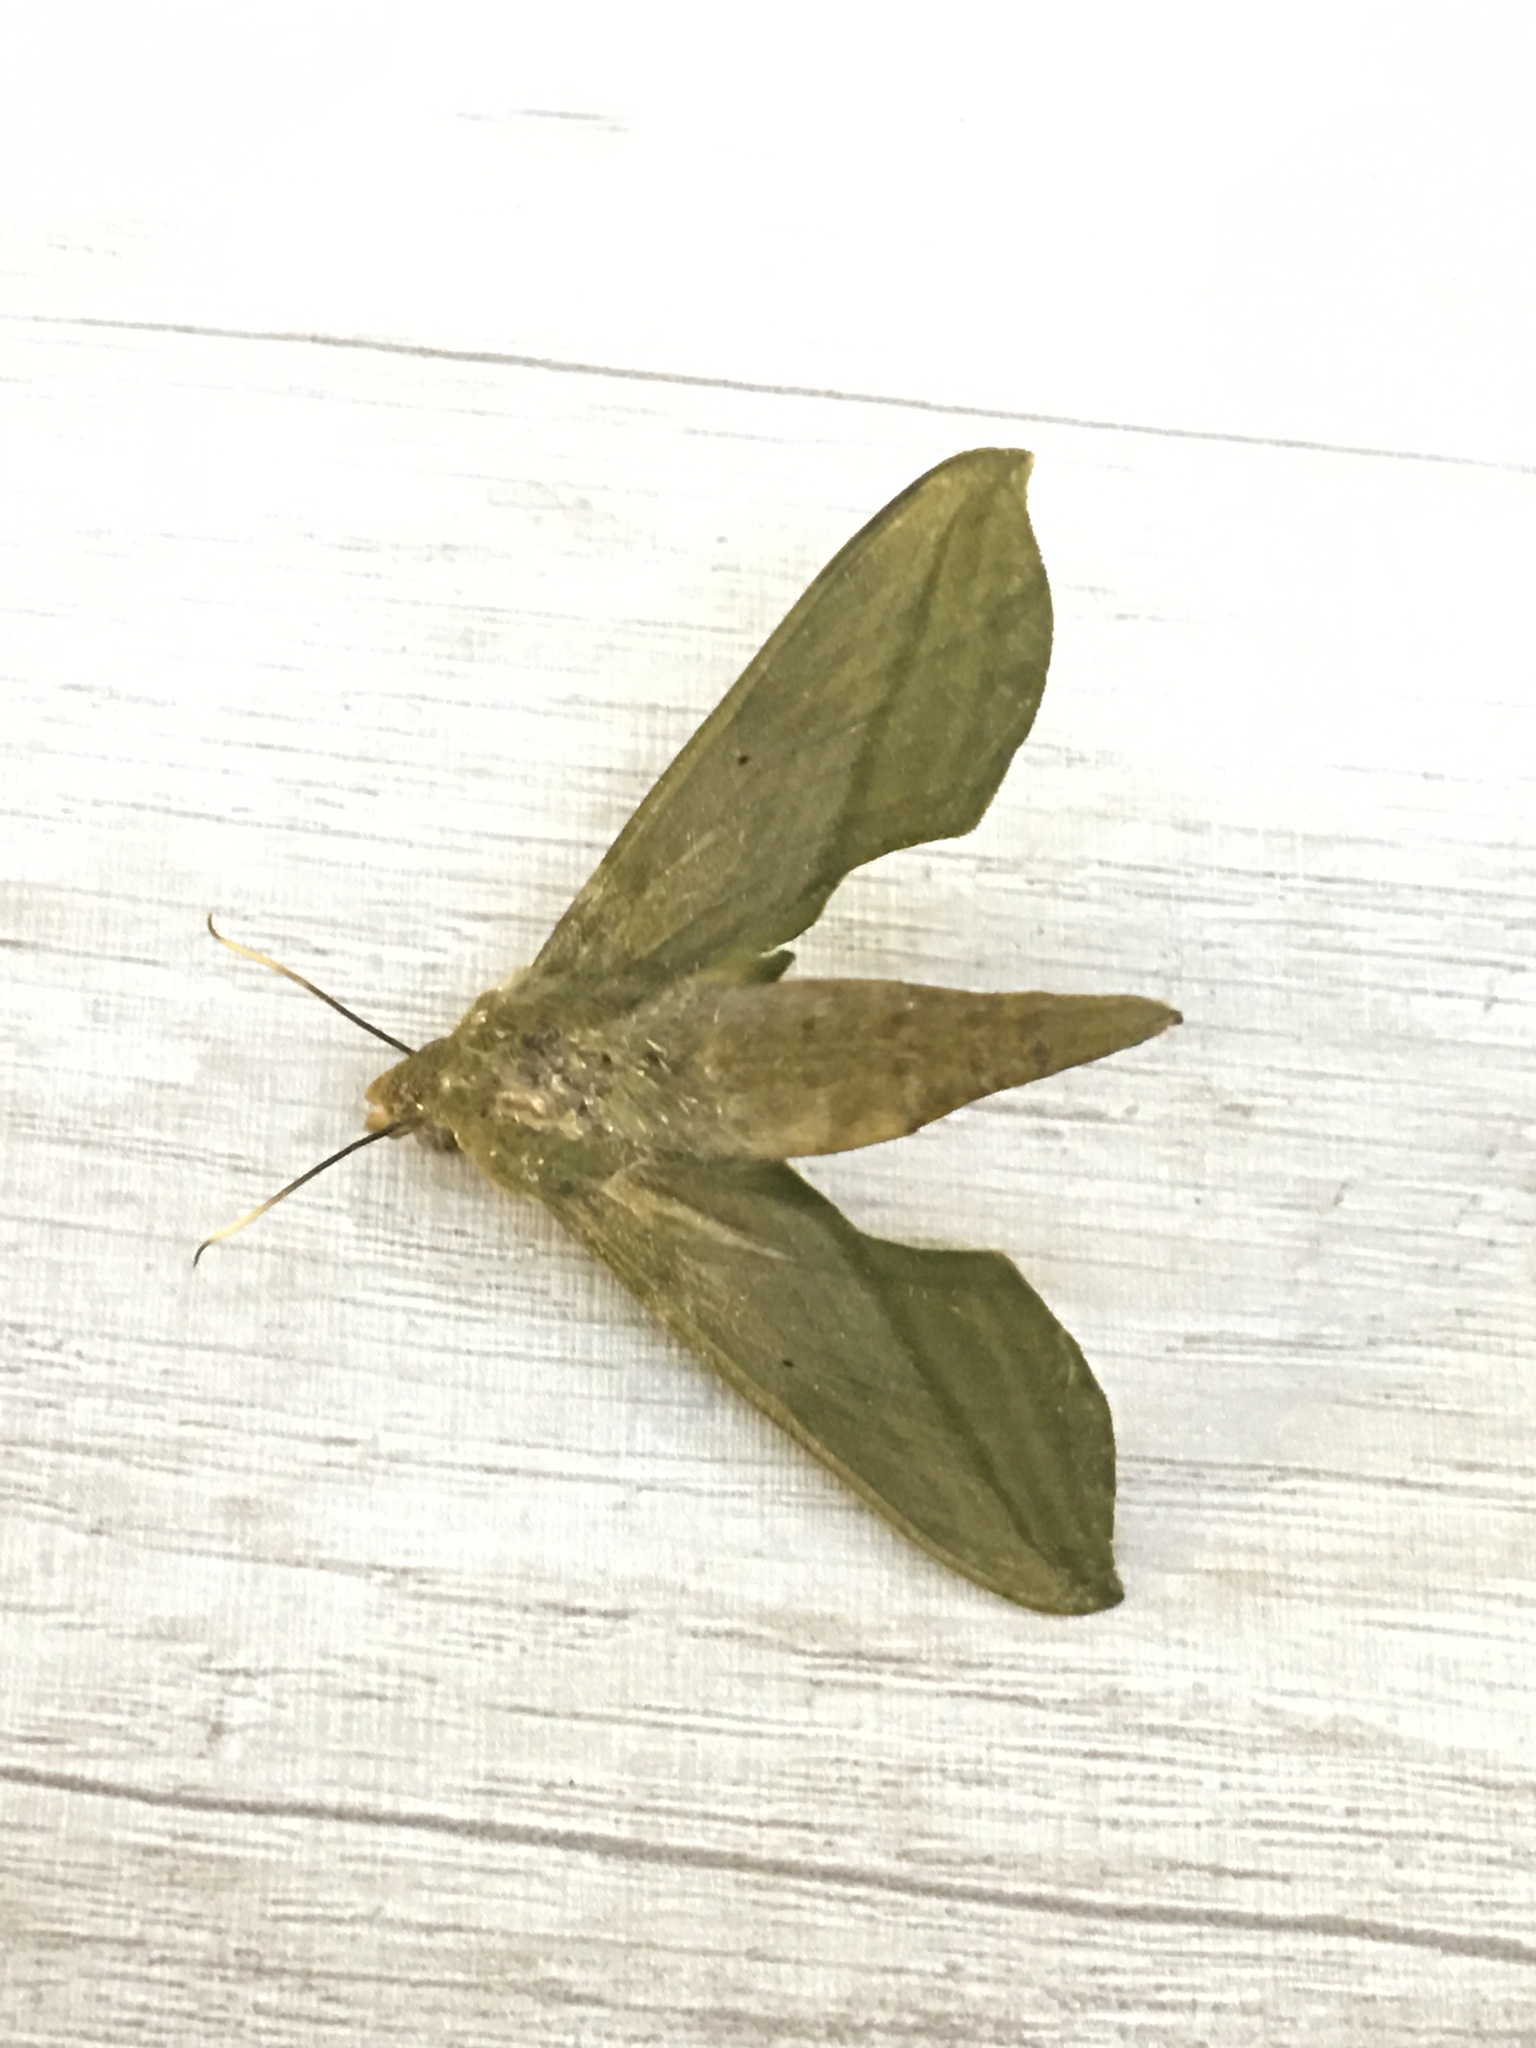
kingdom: Animalia
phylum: Arthropoda
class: Insecta
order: Lepidoptera
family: Sphingidae
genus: Xylophanes
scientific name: Xylophanes elara
